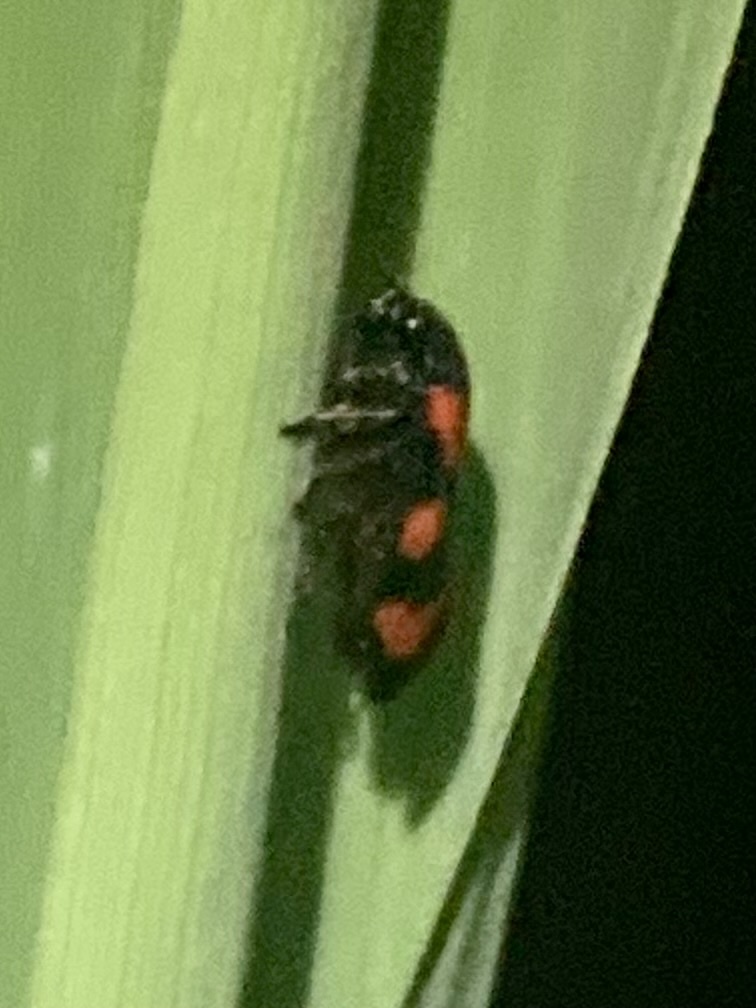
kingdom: Animalia
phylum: Arthropoda
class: Insecta
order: Hemiptera
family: Cercopidae
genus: Cercopis
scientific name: Cercopis vulnerata
